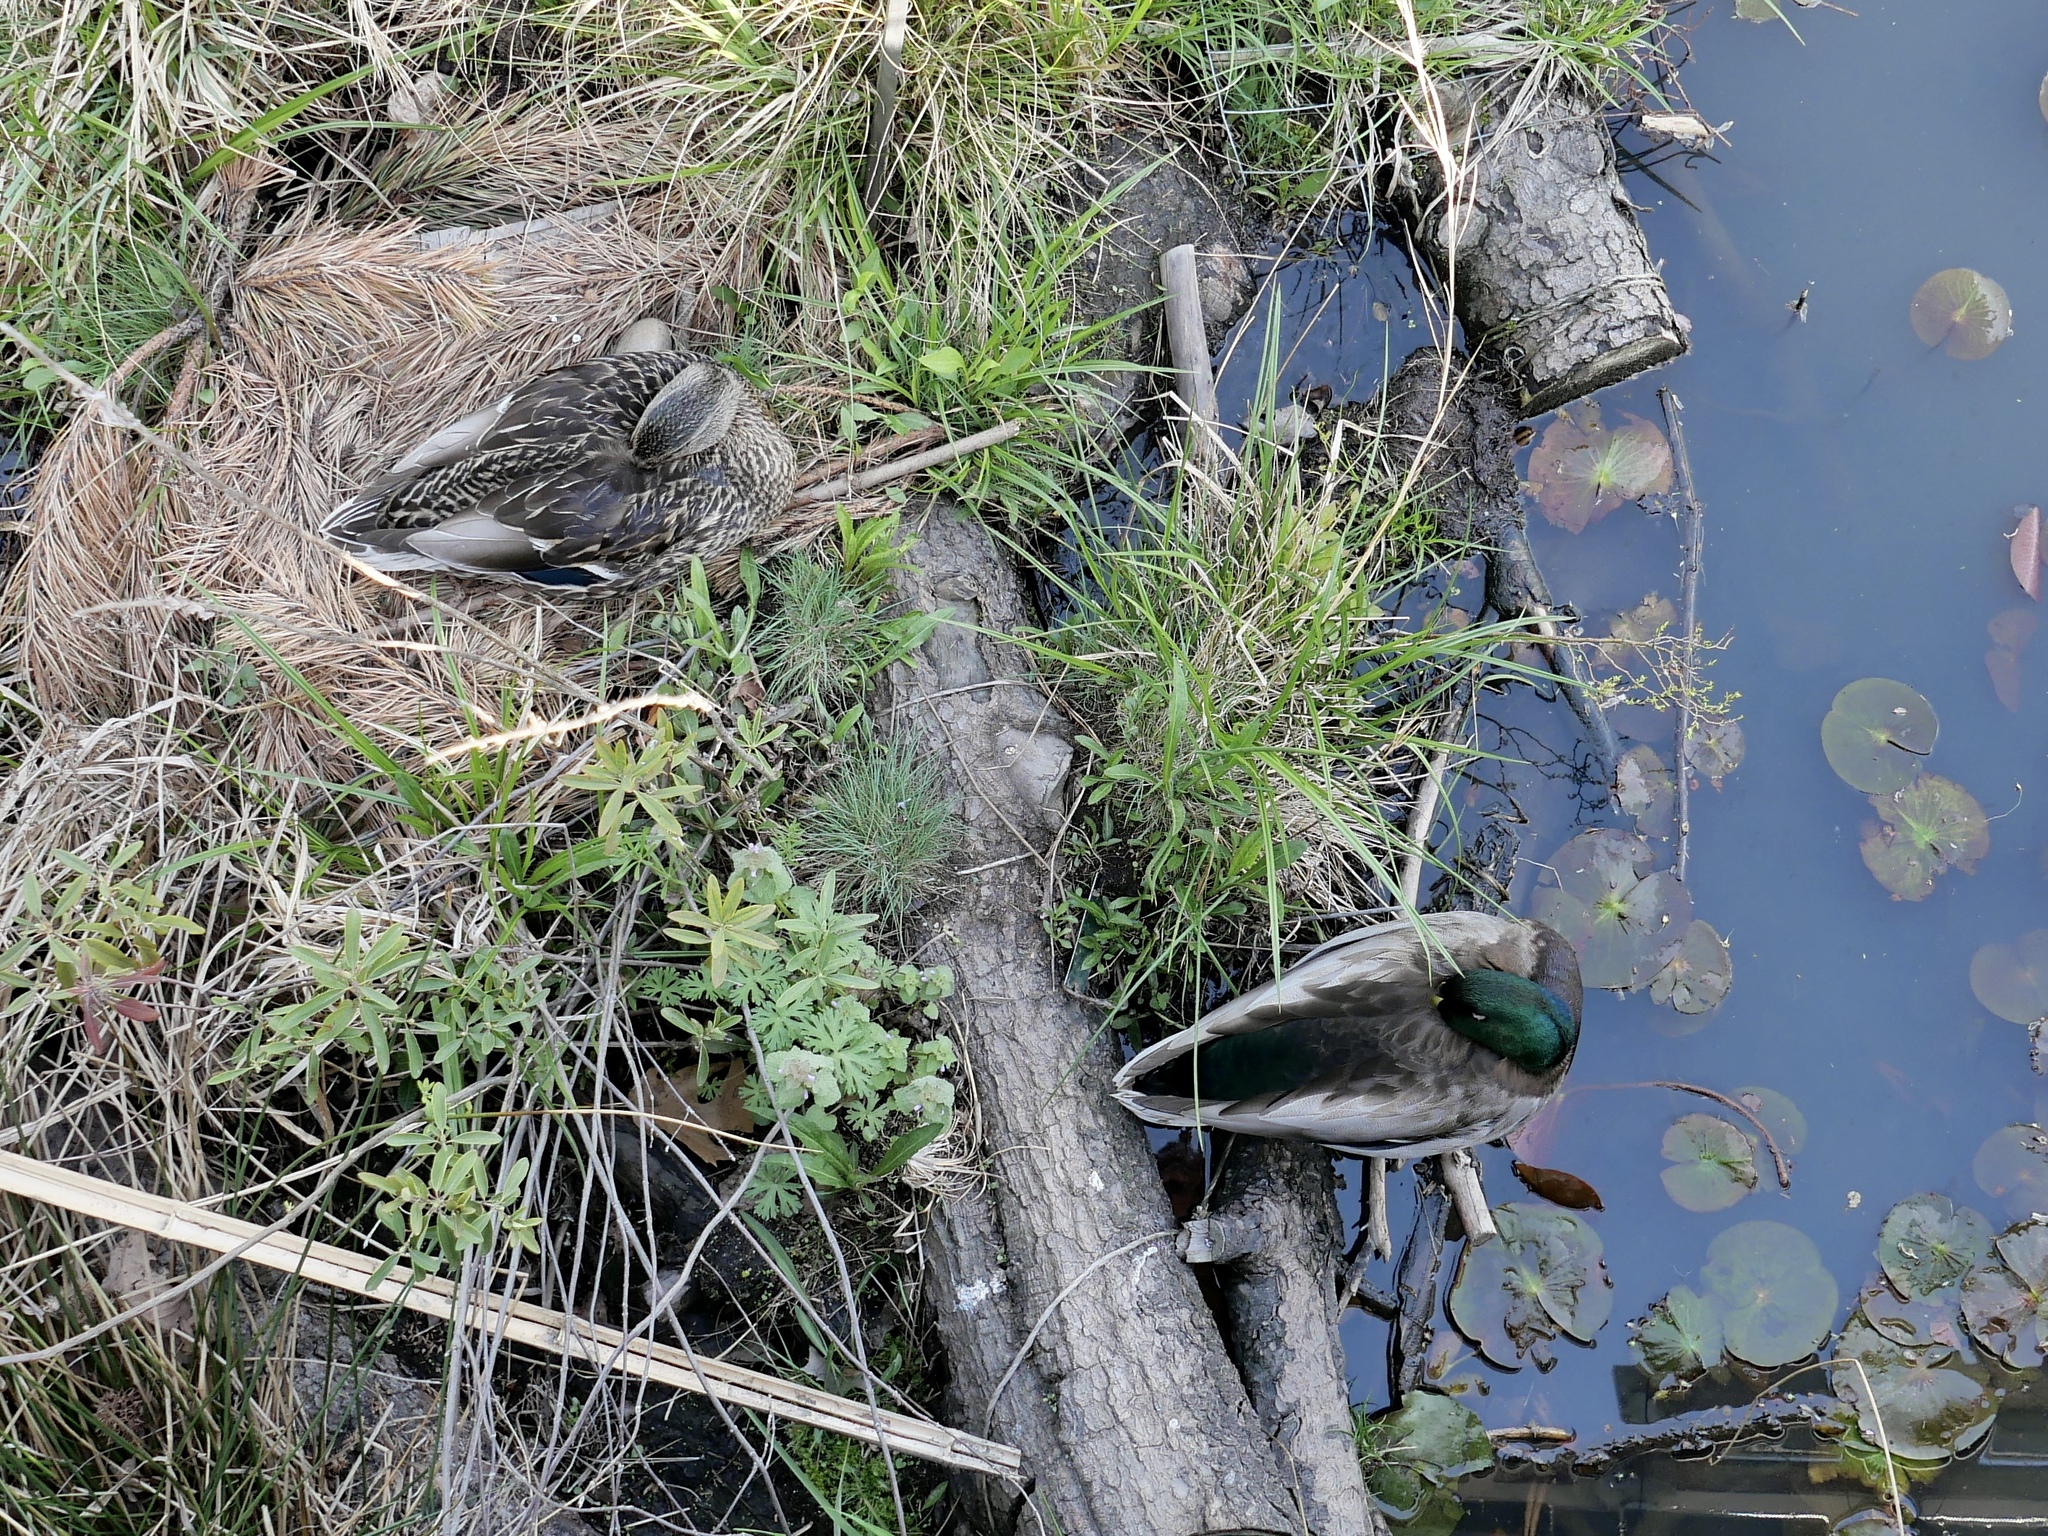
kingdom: Animalia
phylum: Chordata
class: Aves
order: Anseriformes
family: Anatidae
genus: Anas
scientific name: Anas platyrhynchos
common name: Mallard
